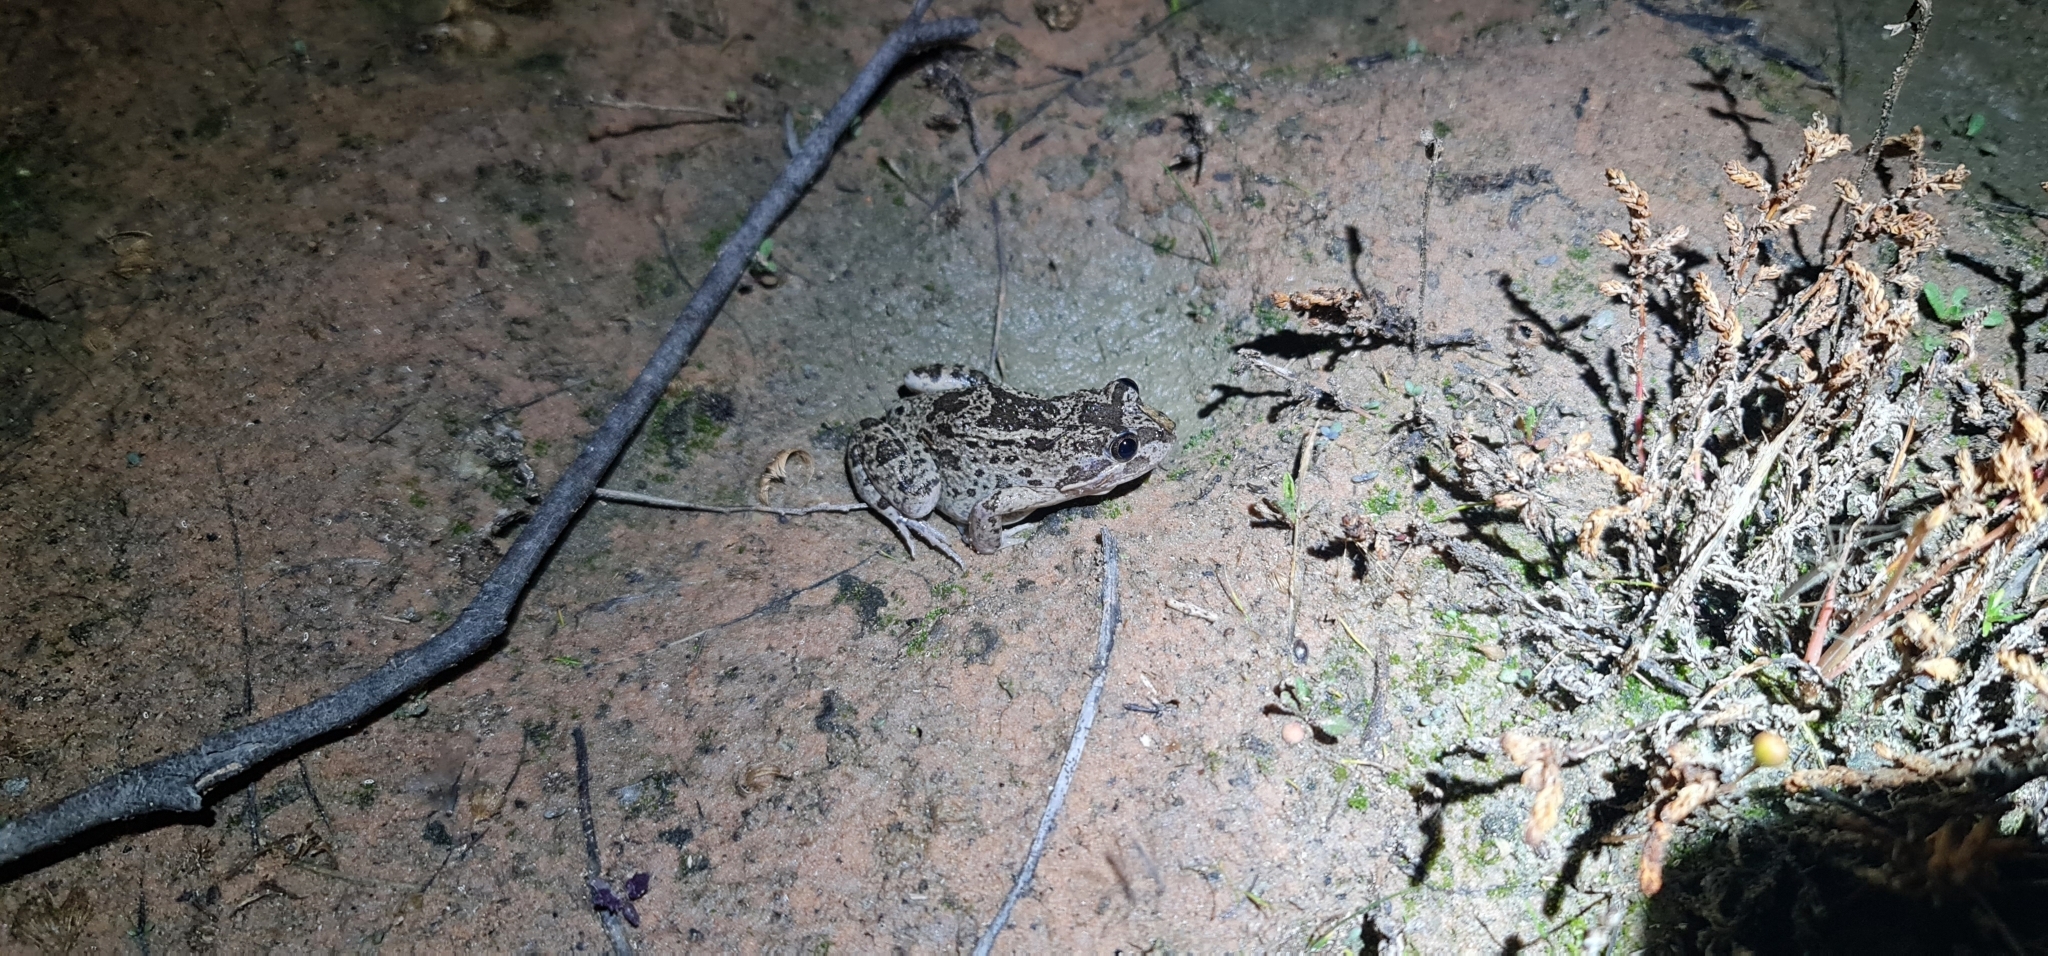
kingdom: Animalia
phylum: Chordata
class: Amphibia
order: Anura
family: Limnodynastidae
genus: Limnodynastes
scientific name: Limnodynastes fletcheri
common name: Barking frog
